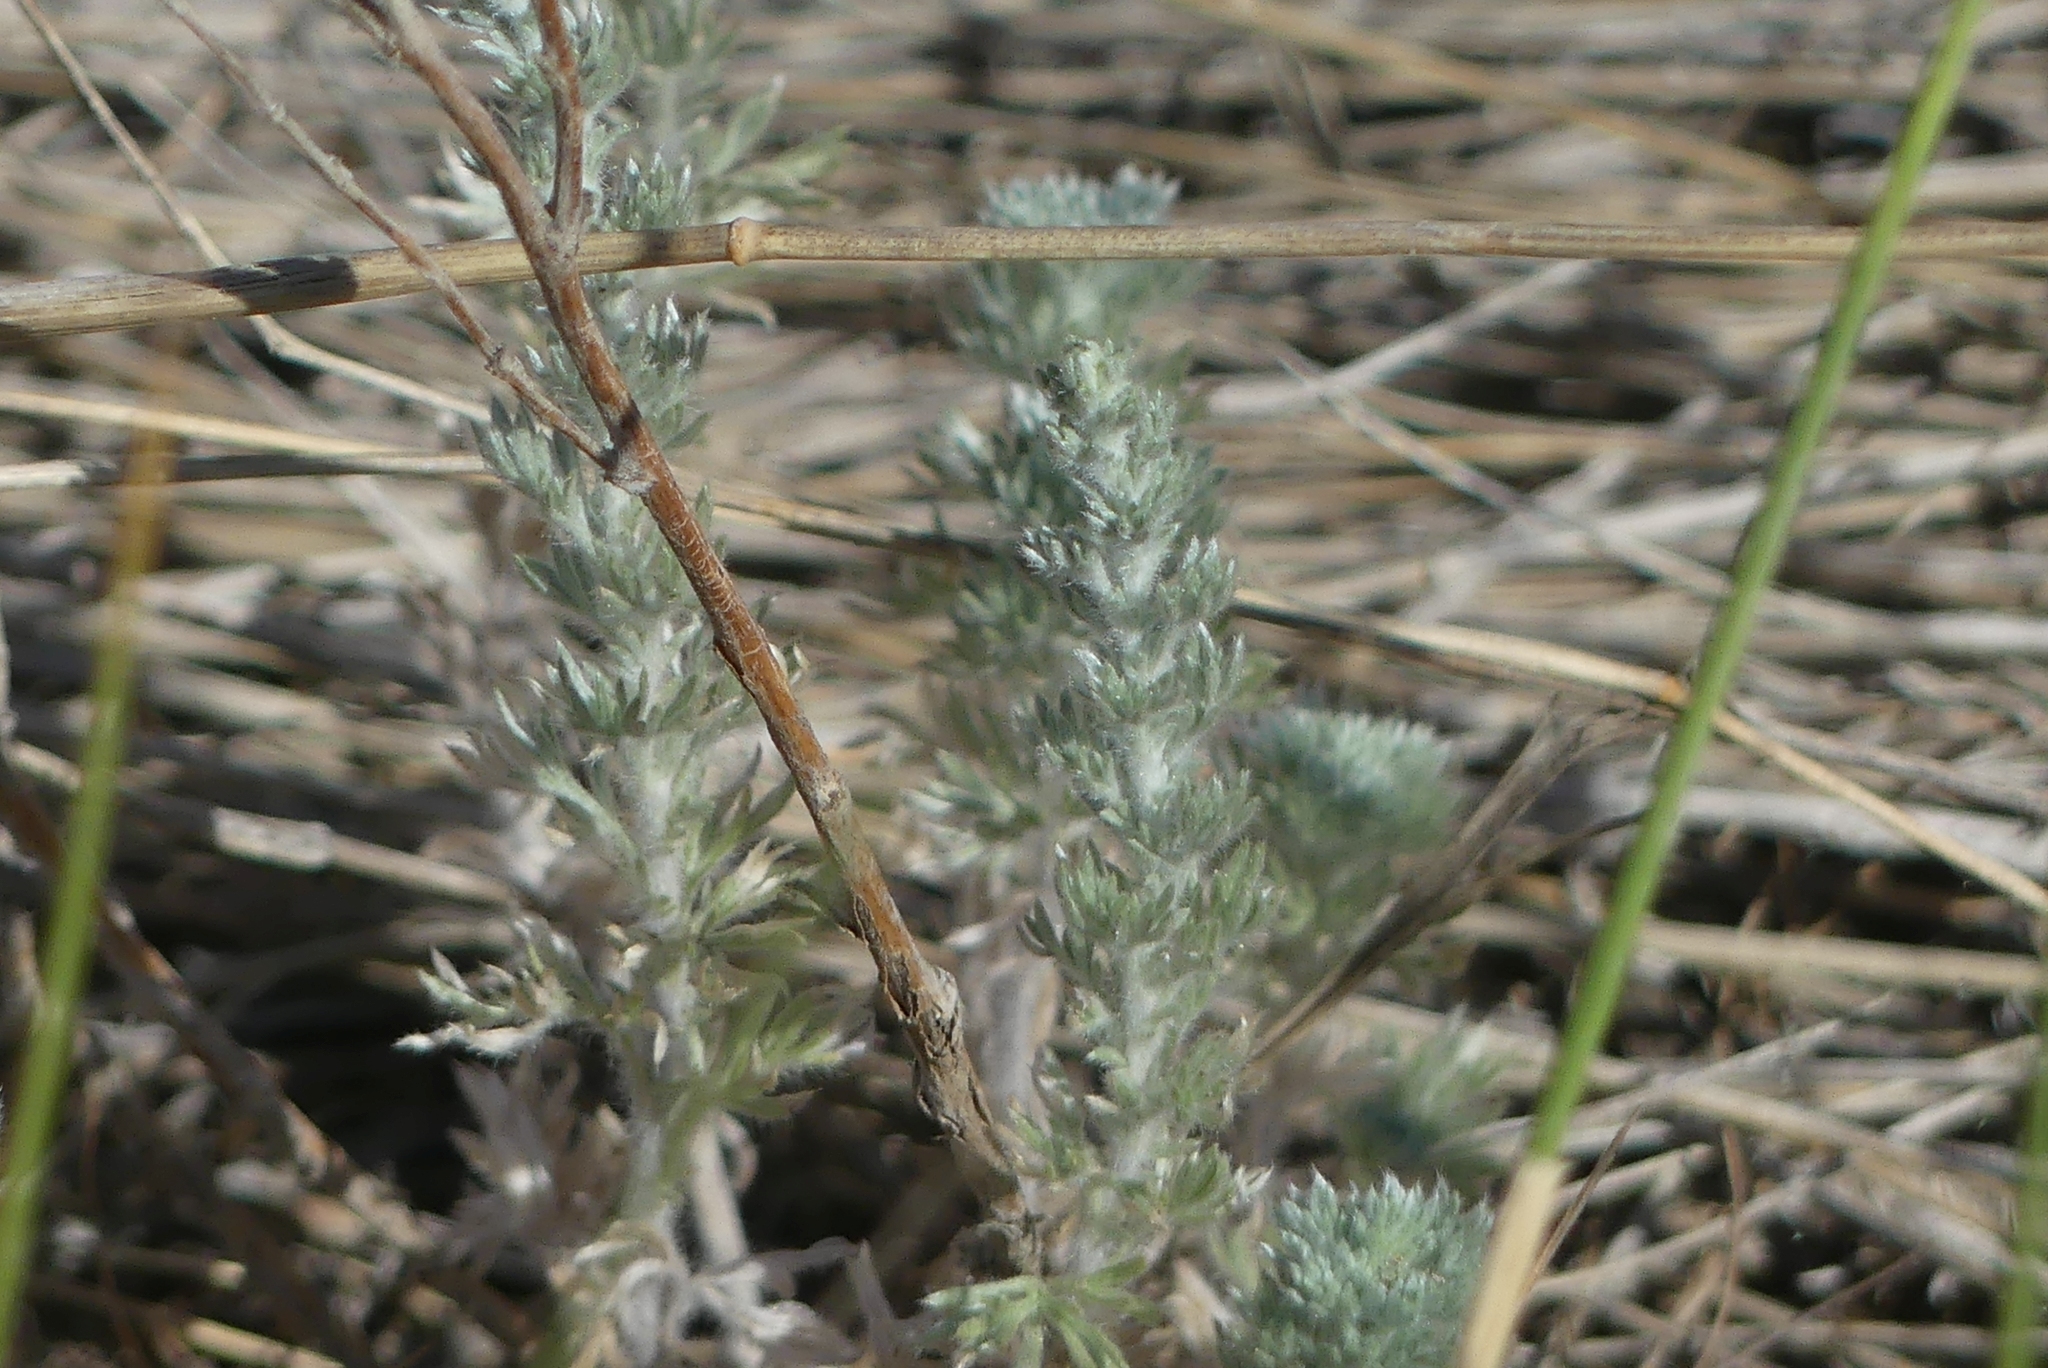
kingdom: Plantae
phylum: Tracheophyta
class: Magnoliopsida
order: Asterales
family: Asteraceae
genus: Artemisia
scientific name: Artemisia frigida
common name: Prairie sagewort
